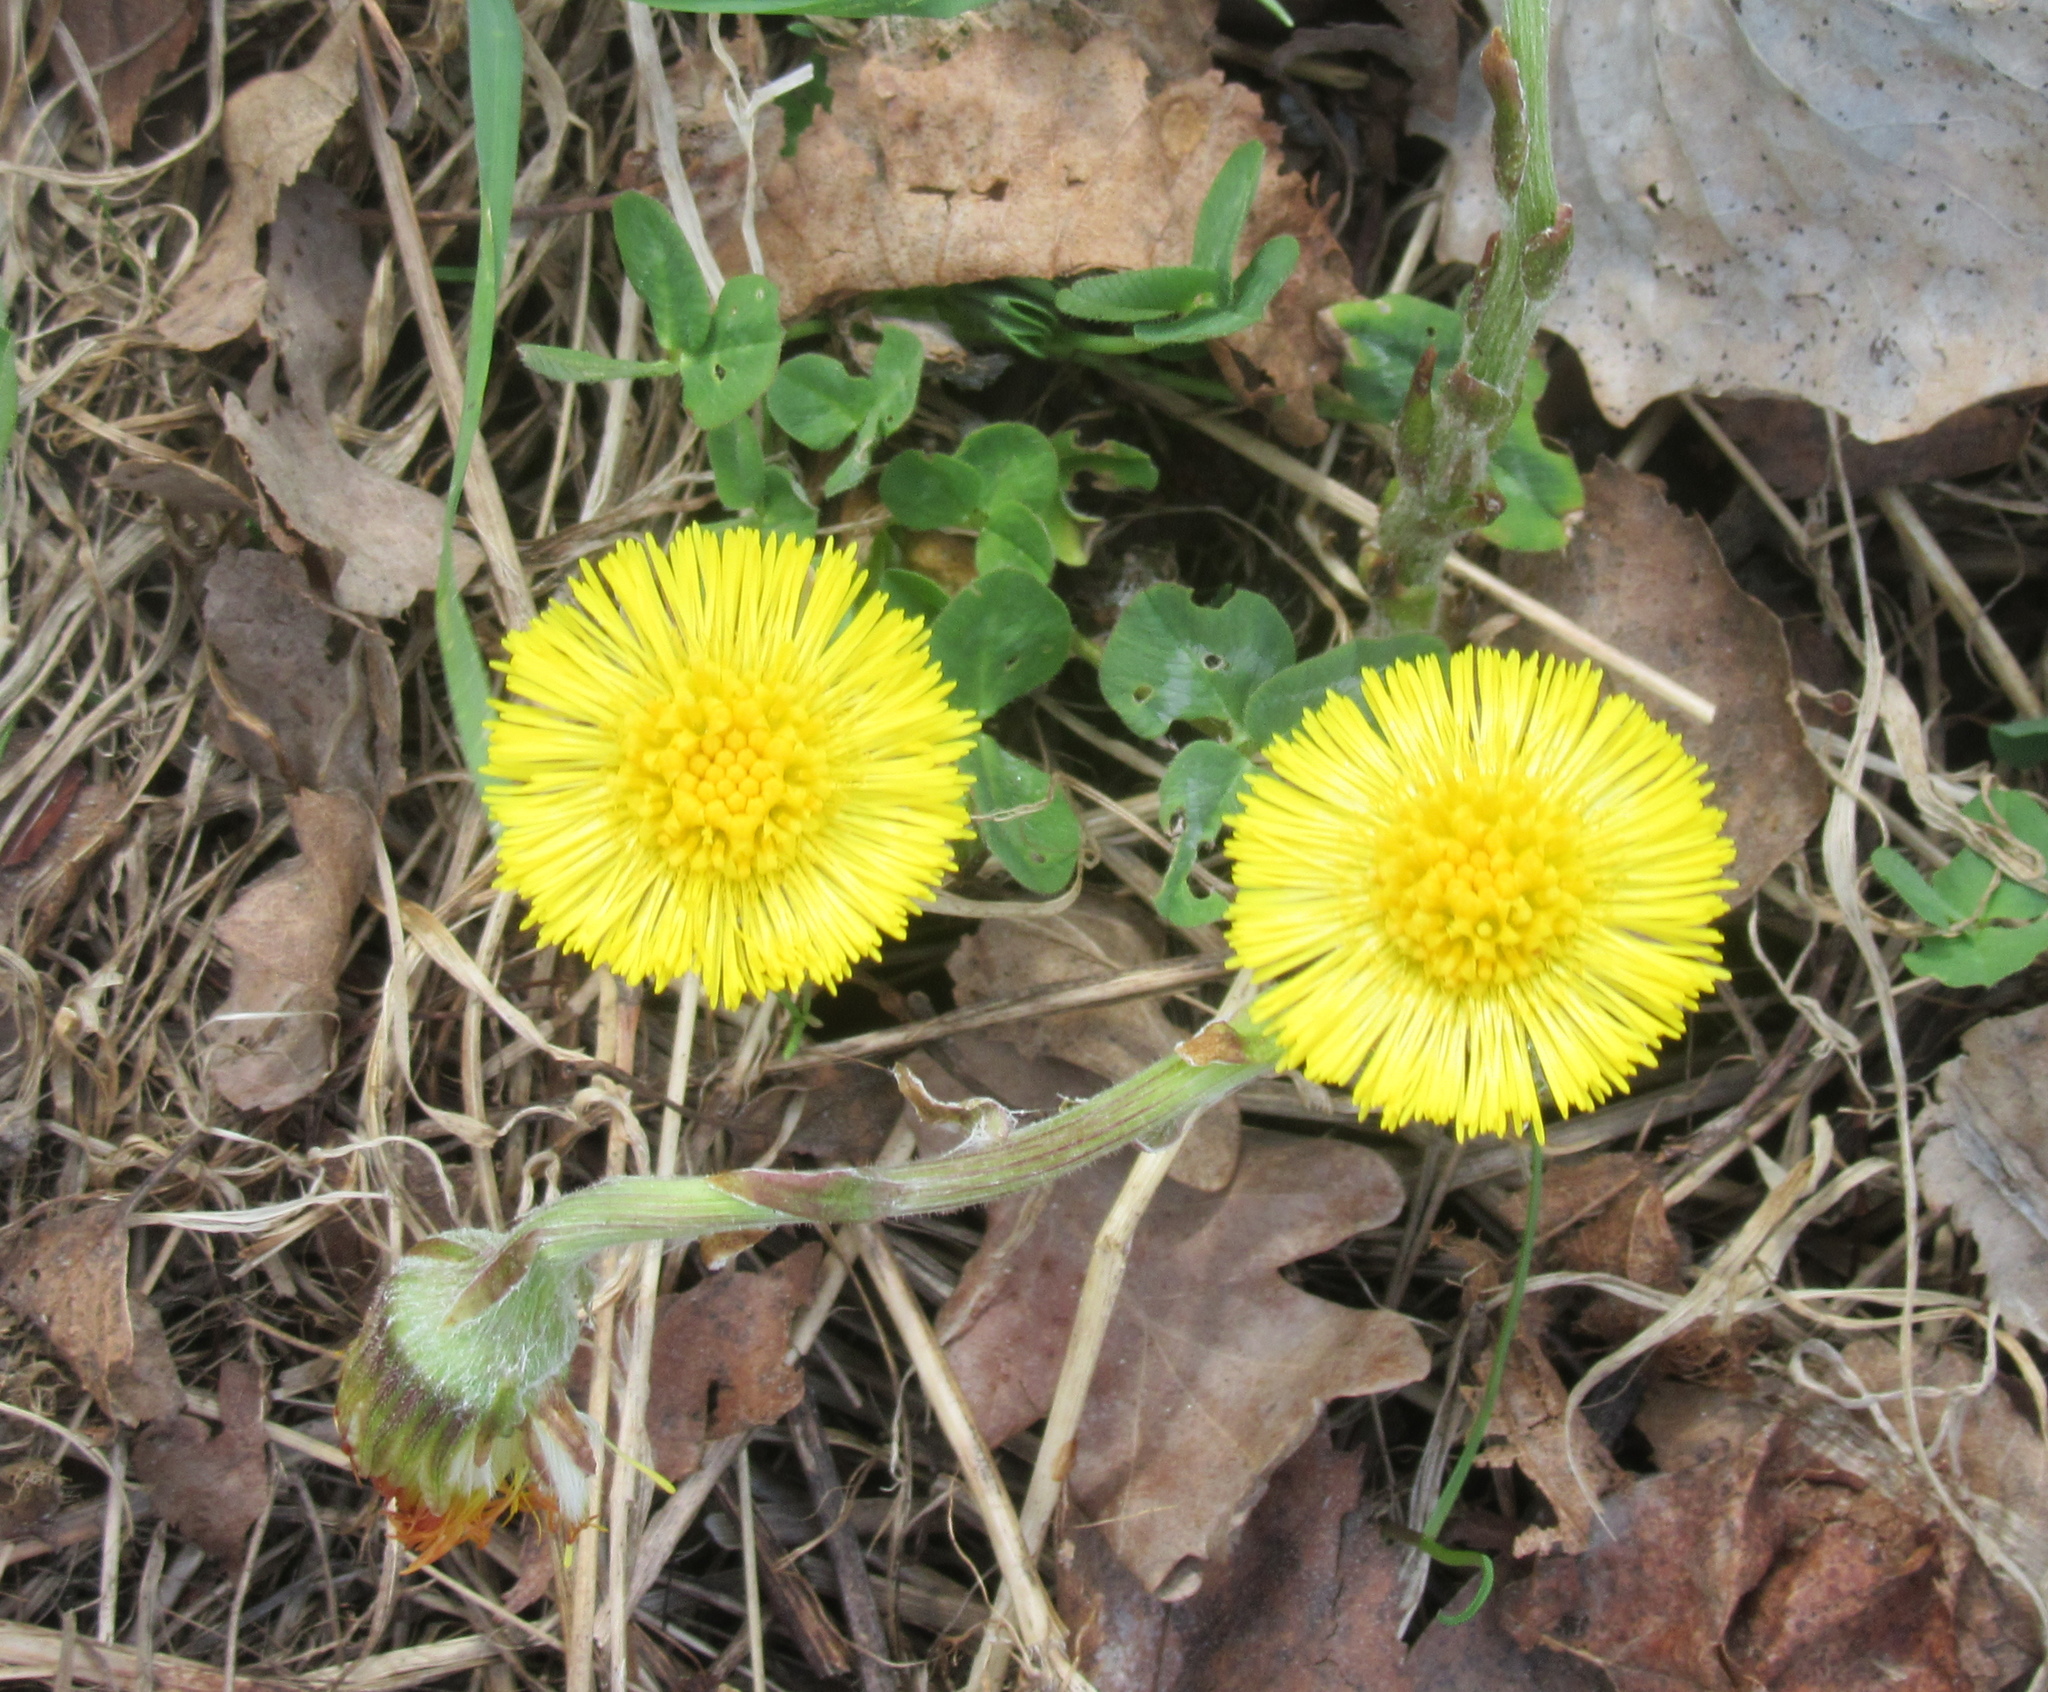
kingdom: Plantae
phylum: Tracheophyta
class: Magnoliopsida
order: Asterales
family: Asteraceae
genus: Tussilago
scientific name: Tussilago farfara
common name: Coltsfoot
